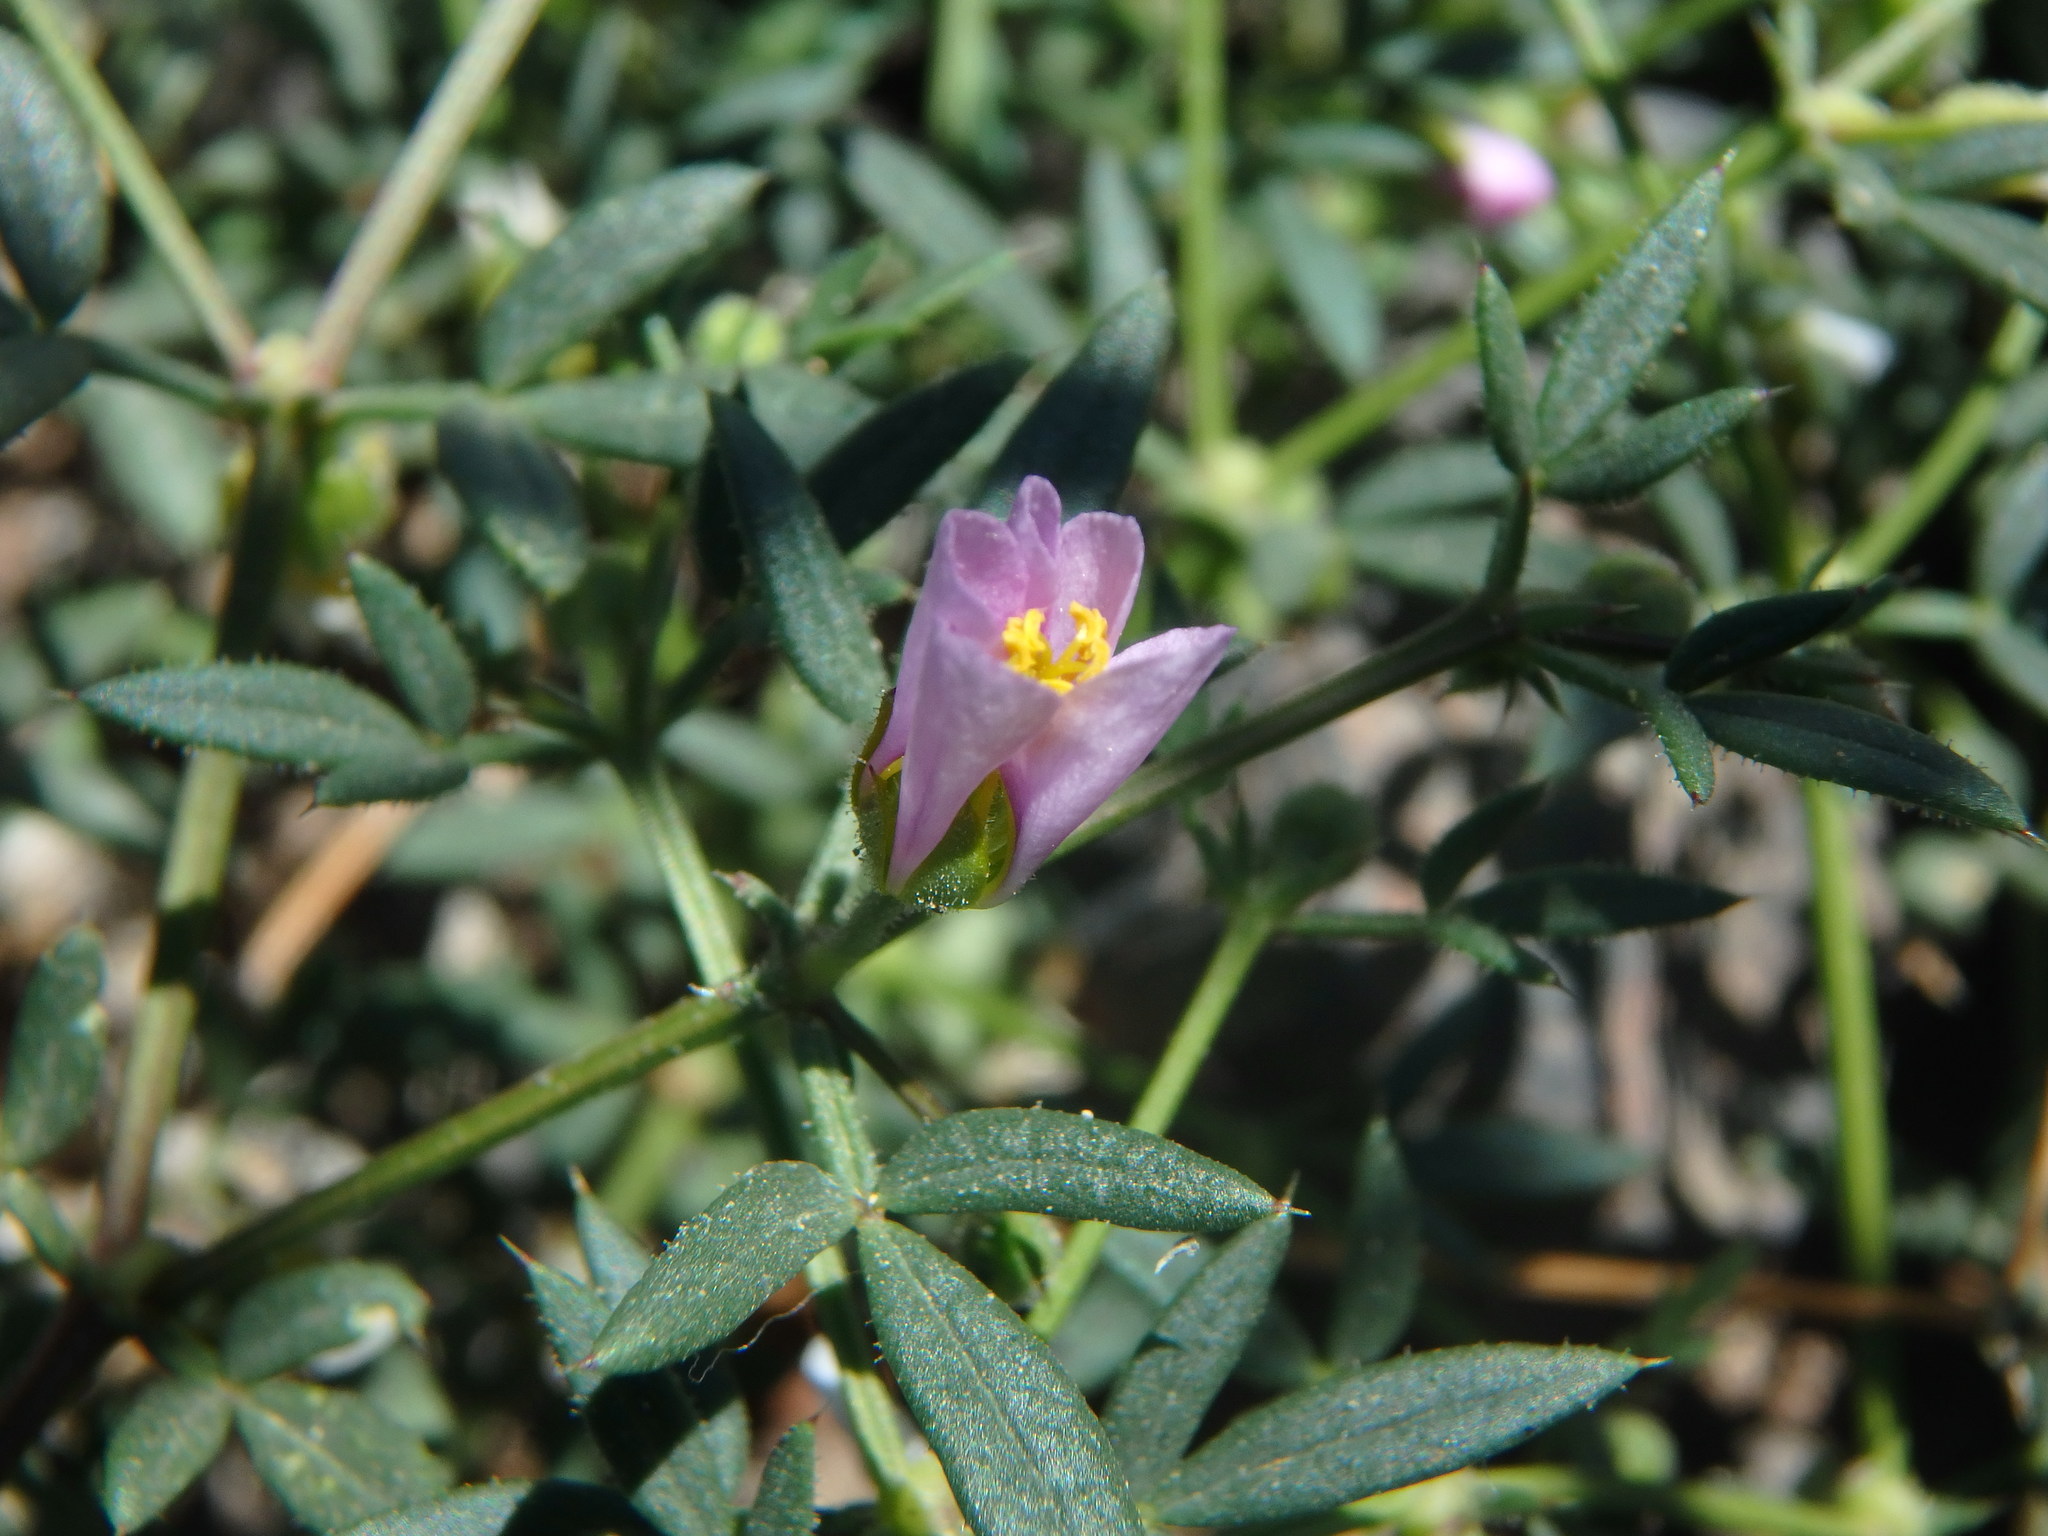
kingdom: Plantae
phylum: Tracheophyta
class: Magnoliopsida
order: Zygophyllales
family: Zygophyllaceae
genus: Fagonia
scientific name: Fagonia cretica
